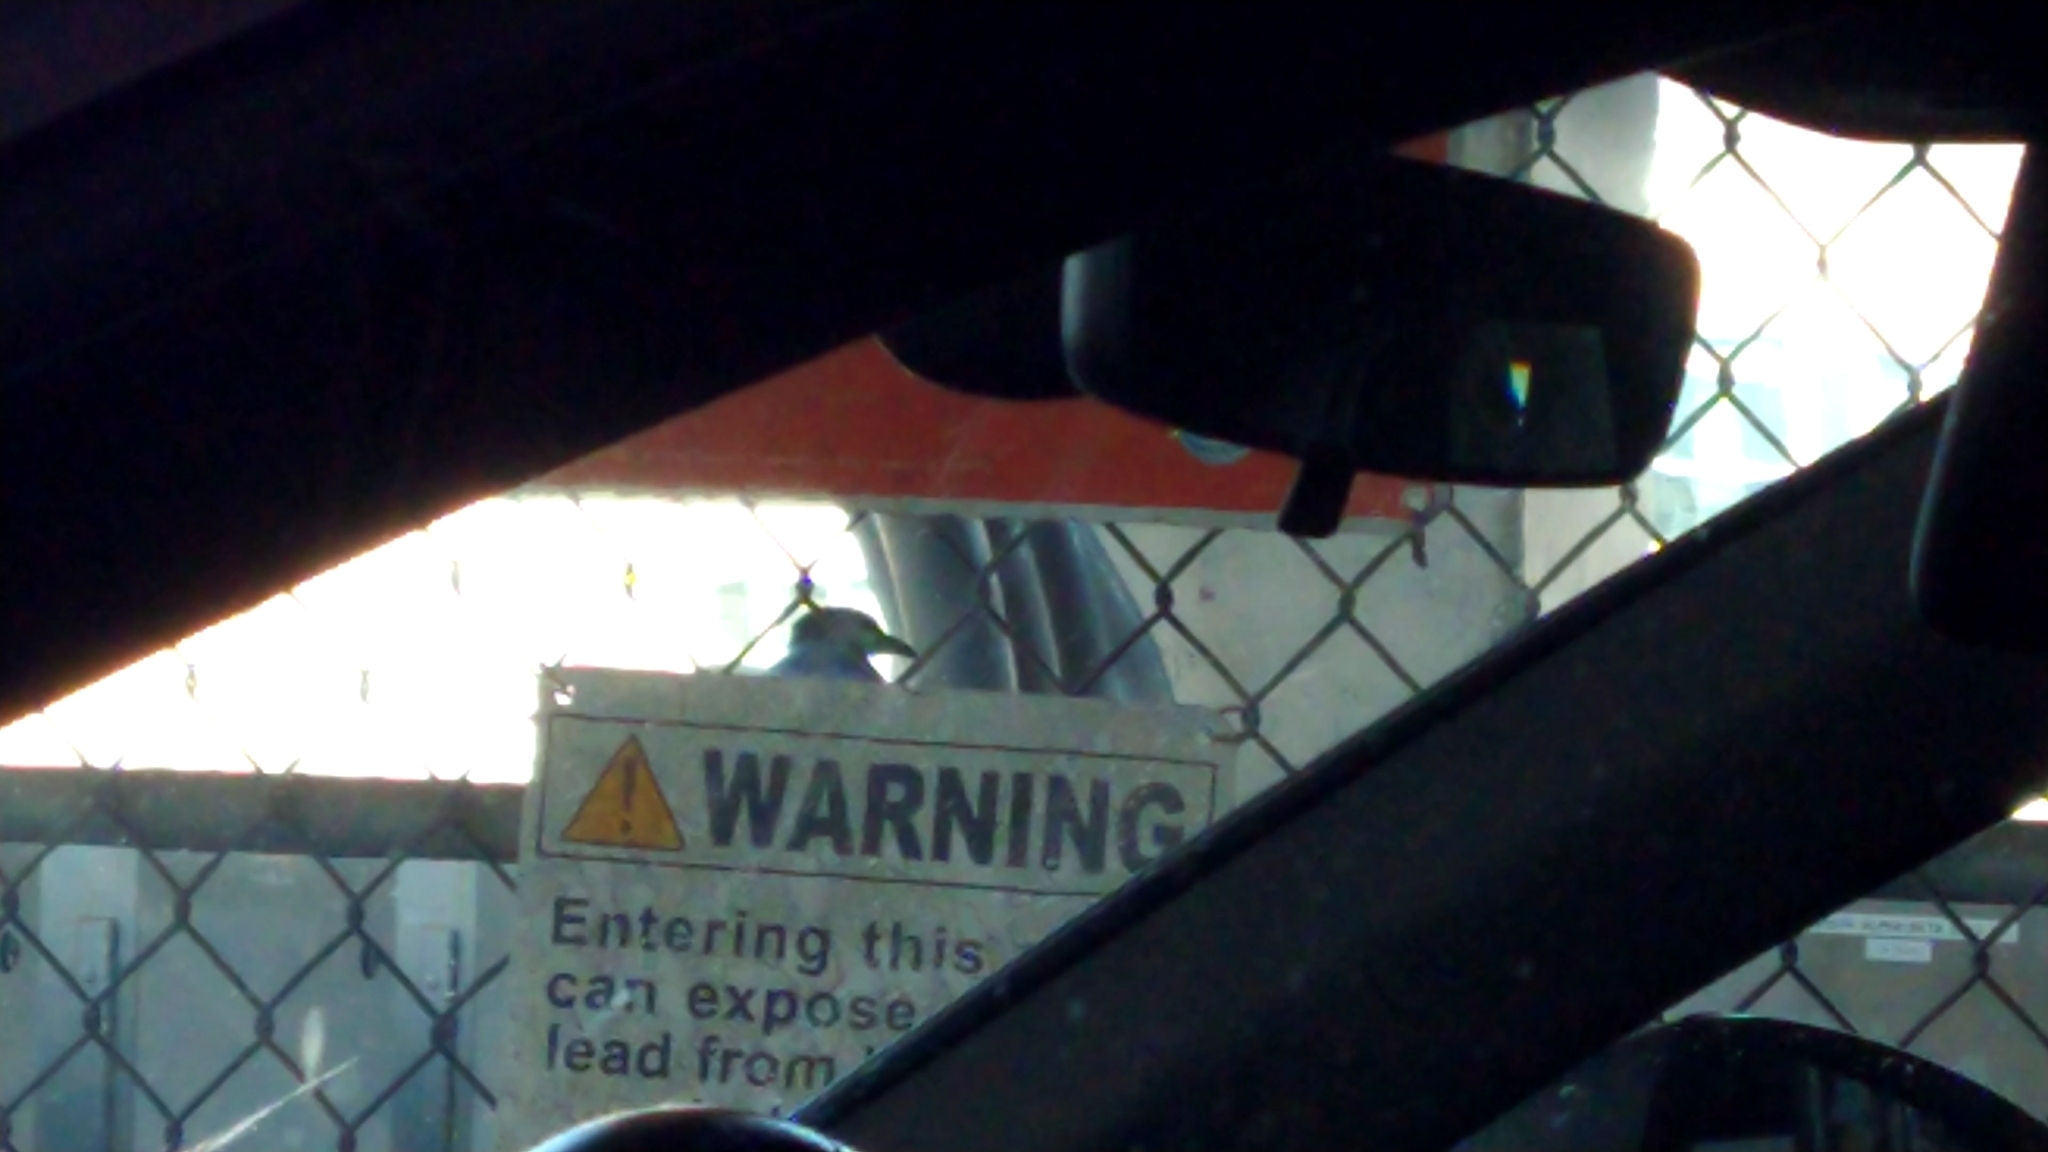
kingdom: Animalia
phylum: Chordata
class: Aves
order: Passeriformes
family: Corvidae
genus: Corvus
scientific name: Corvus brachyrhynchos
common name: American crow
